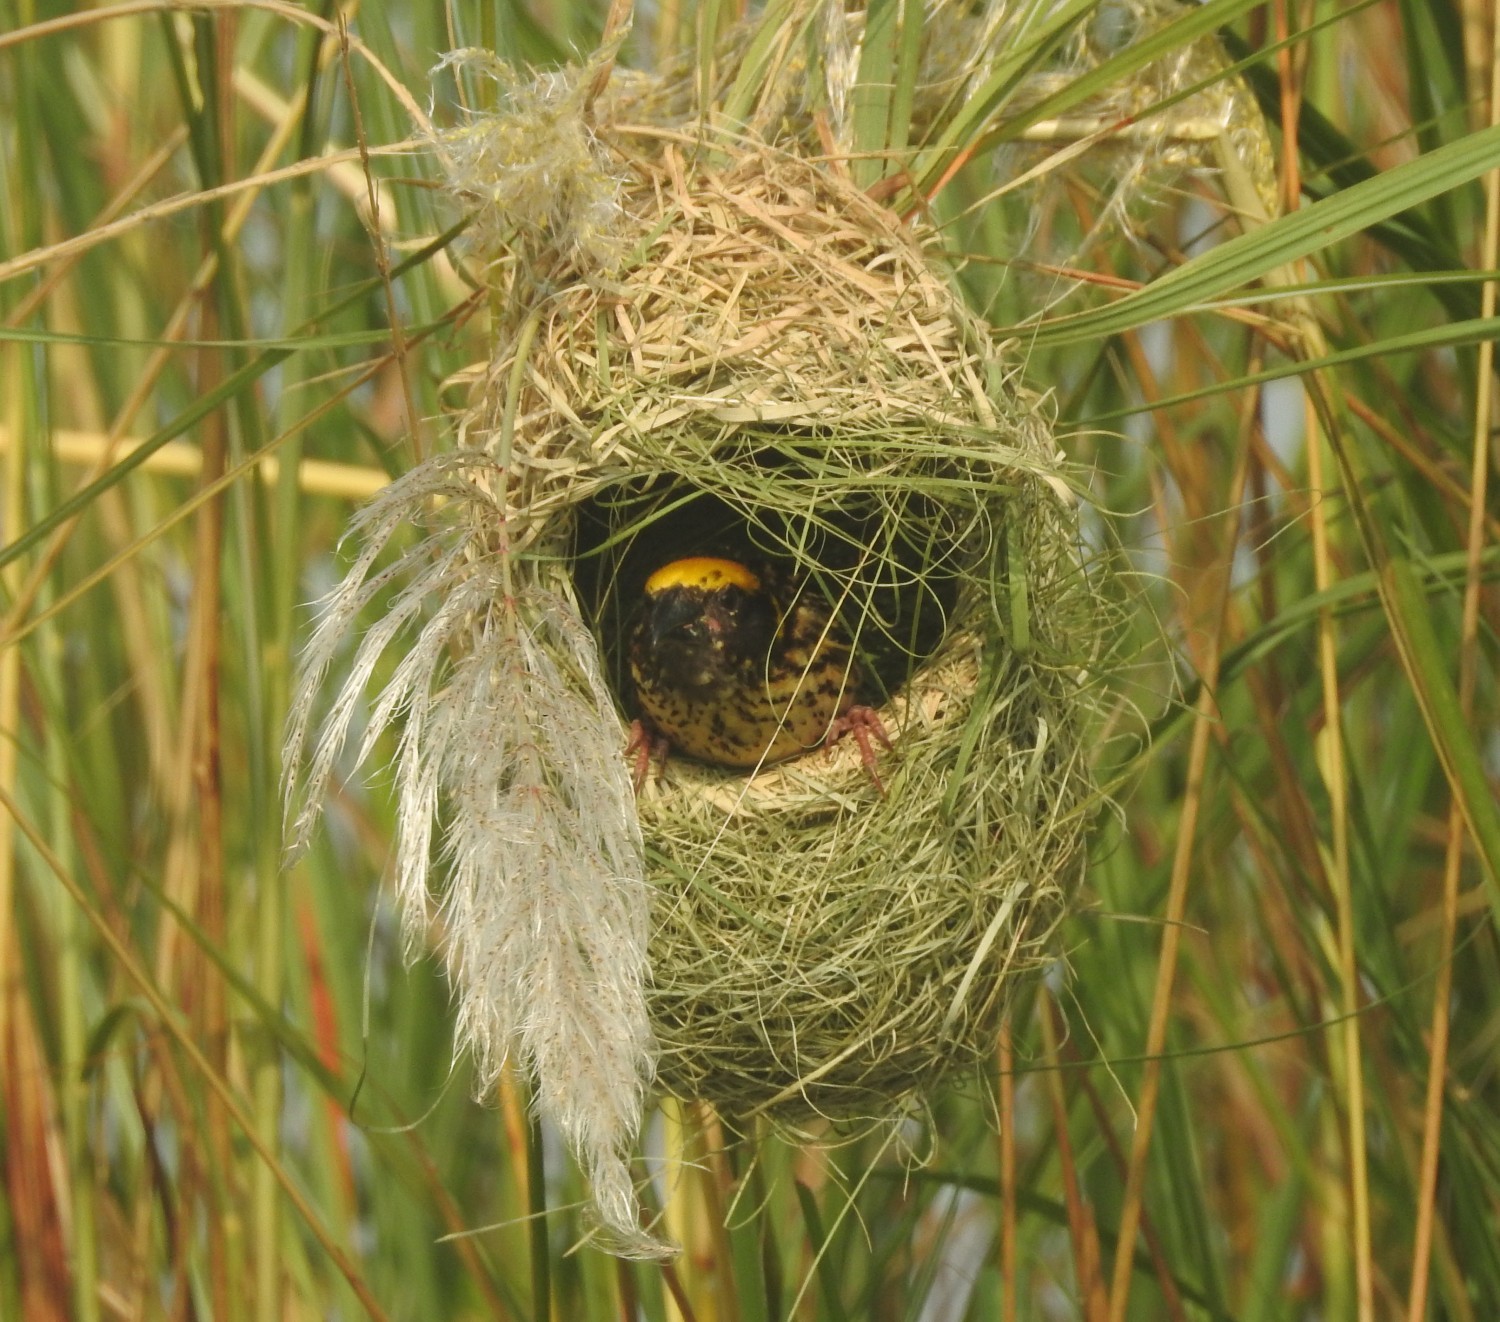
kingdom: Animalia
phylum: Chordata
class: Aves
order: Passeriformes
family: Ploceidae
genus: Ploceus
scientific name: Ploceus manyar
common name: Streaked weaver
